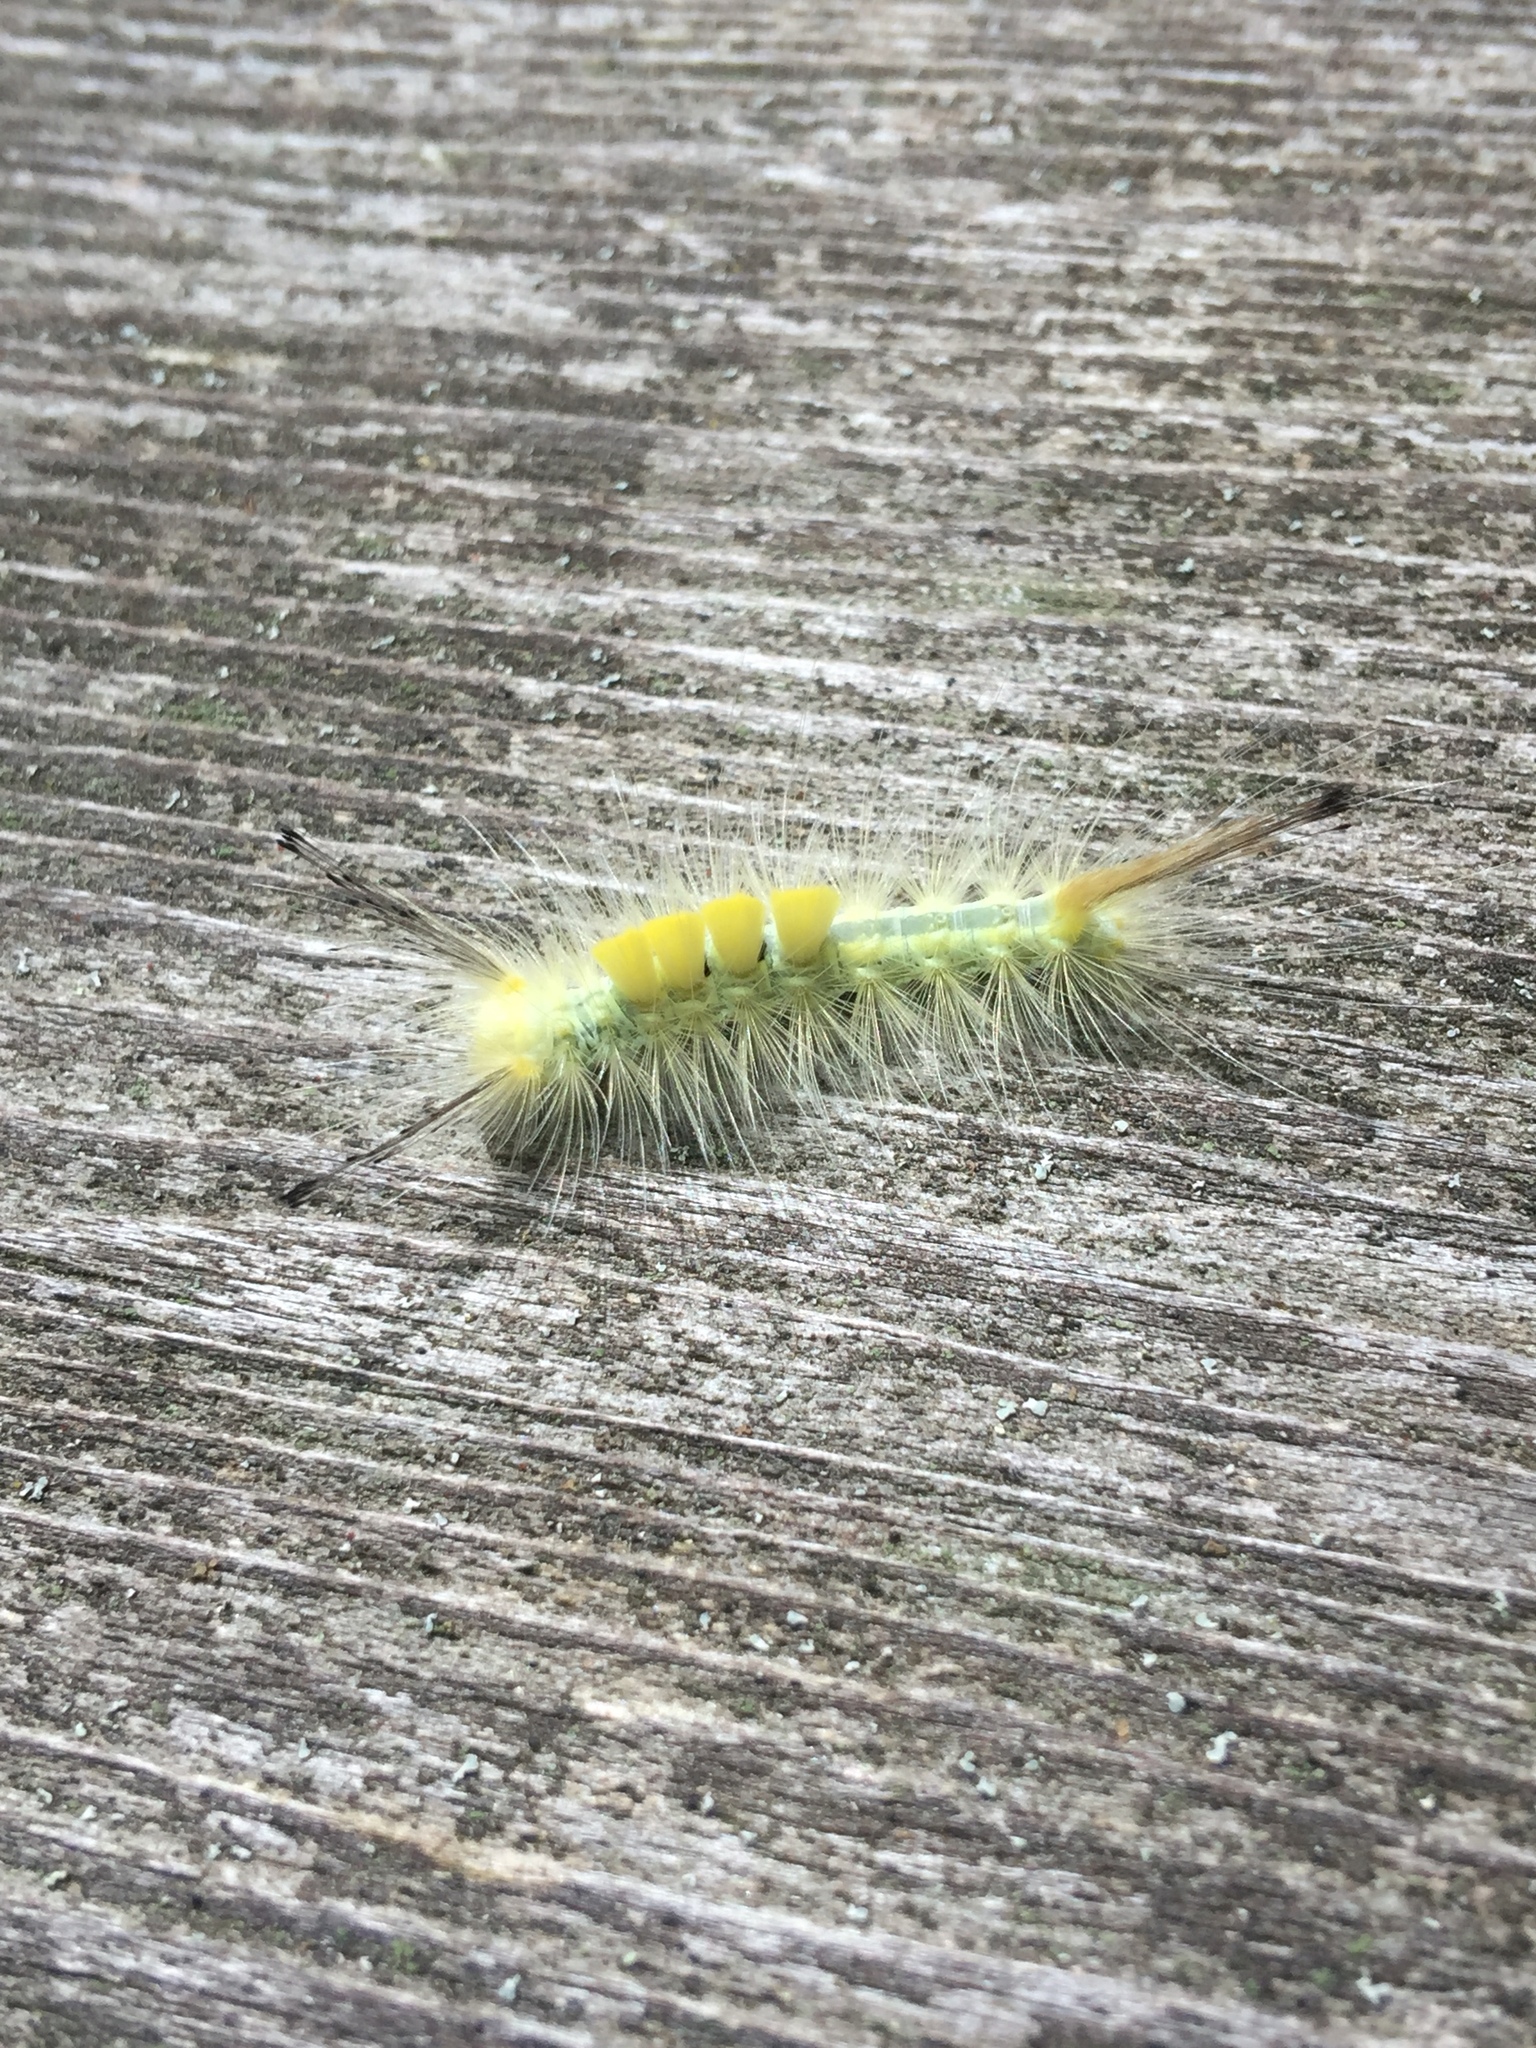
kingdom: Animalia
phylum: Arthropoda
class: Insecta
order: Lepidoptera
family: Erebidae
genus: Orgyia
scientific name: Orgyia definita
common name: Definite tussock moth
